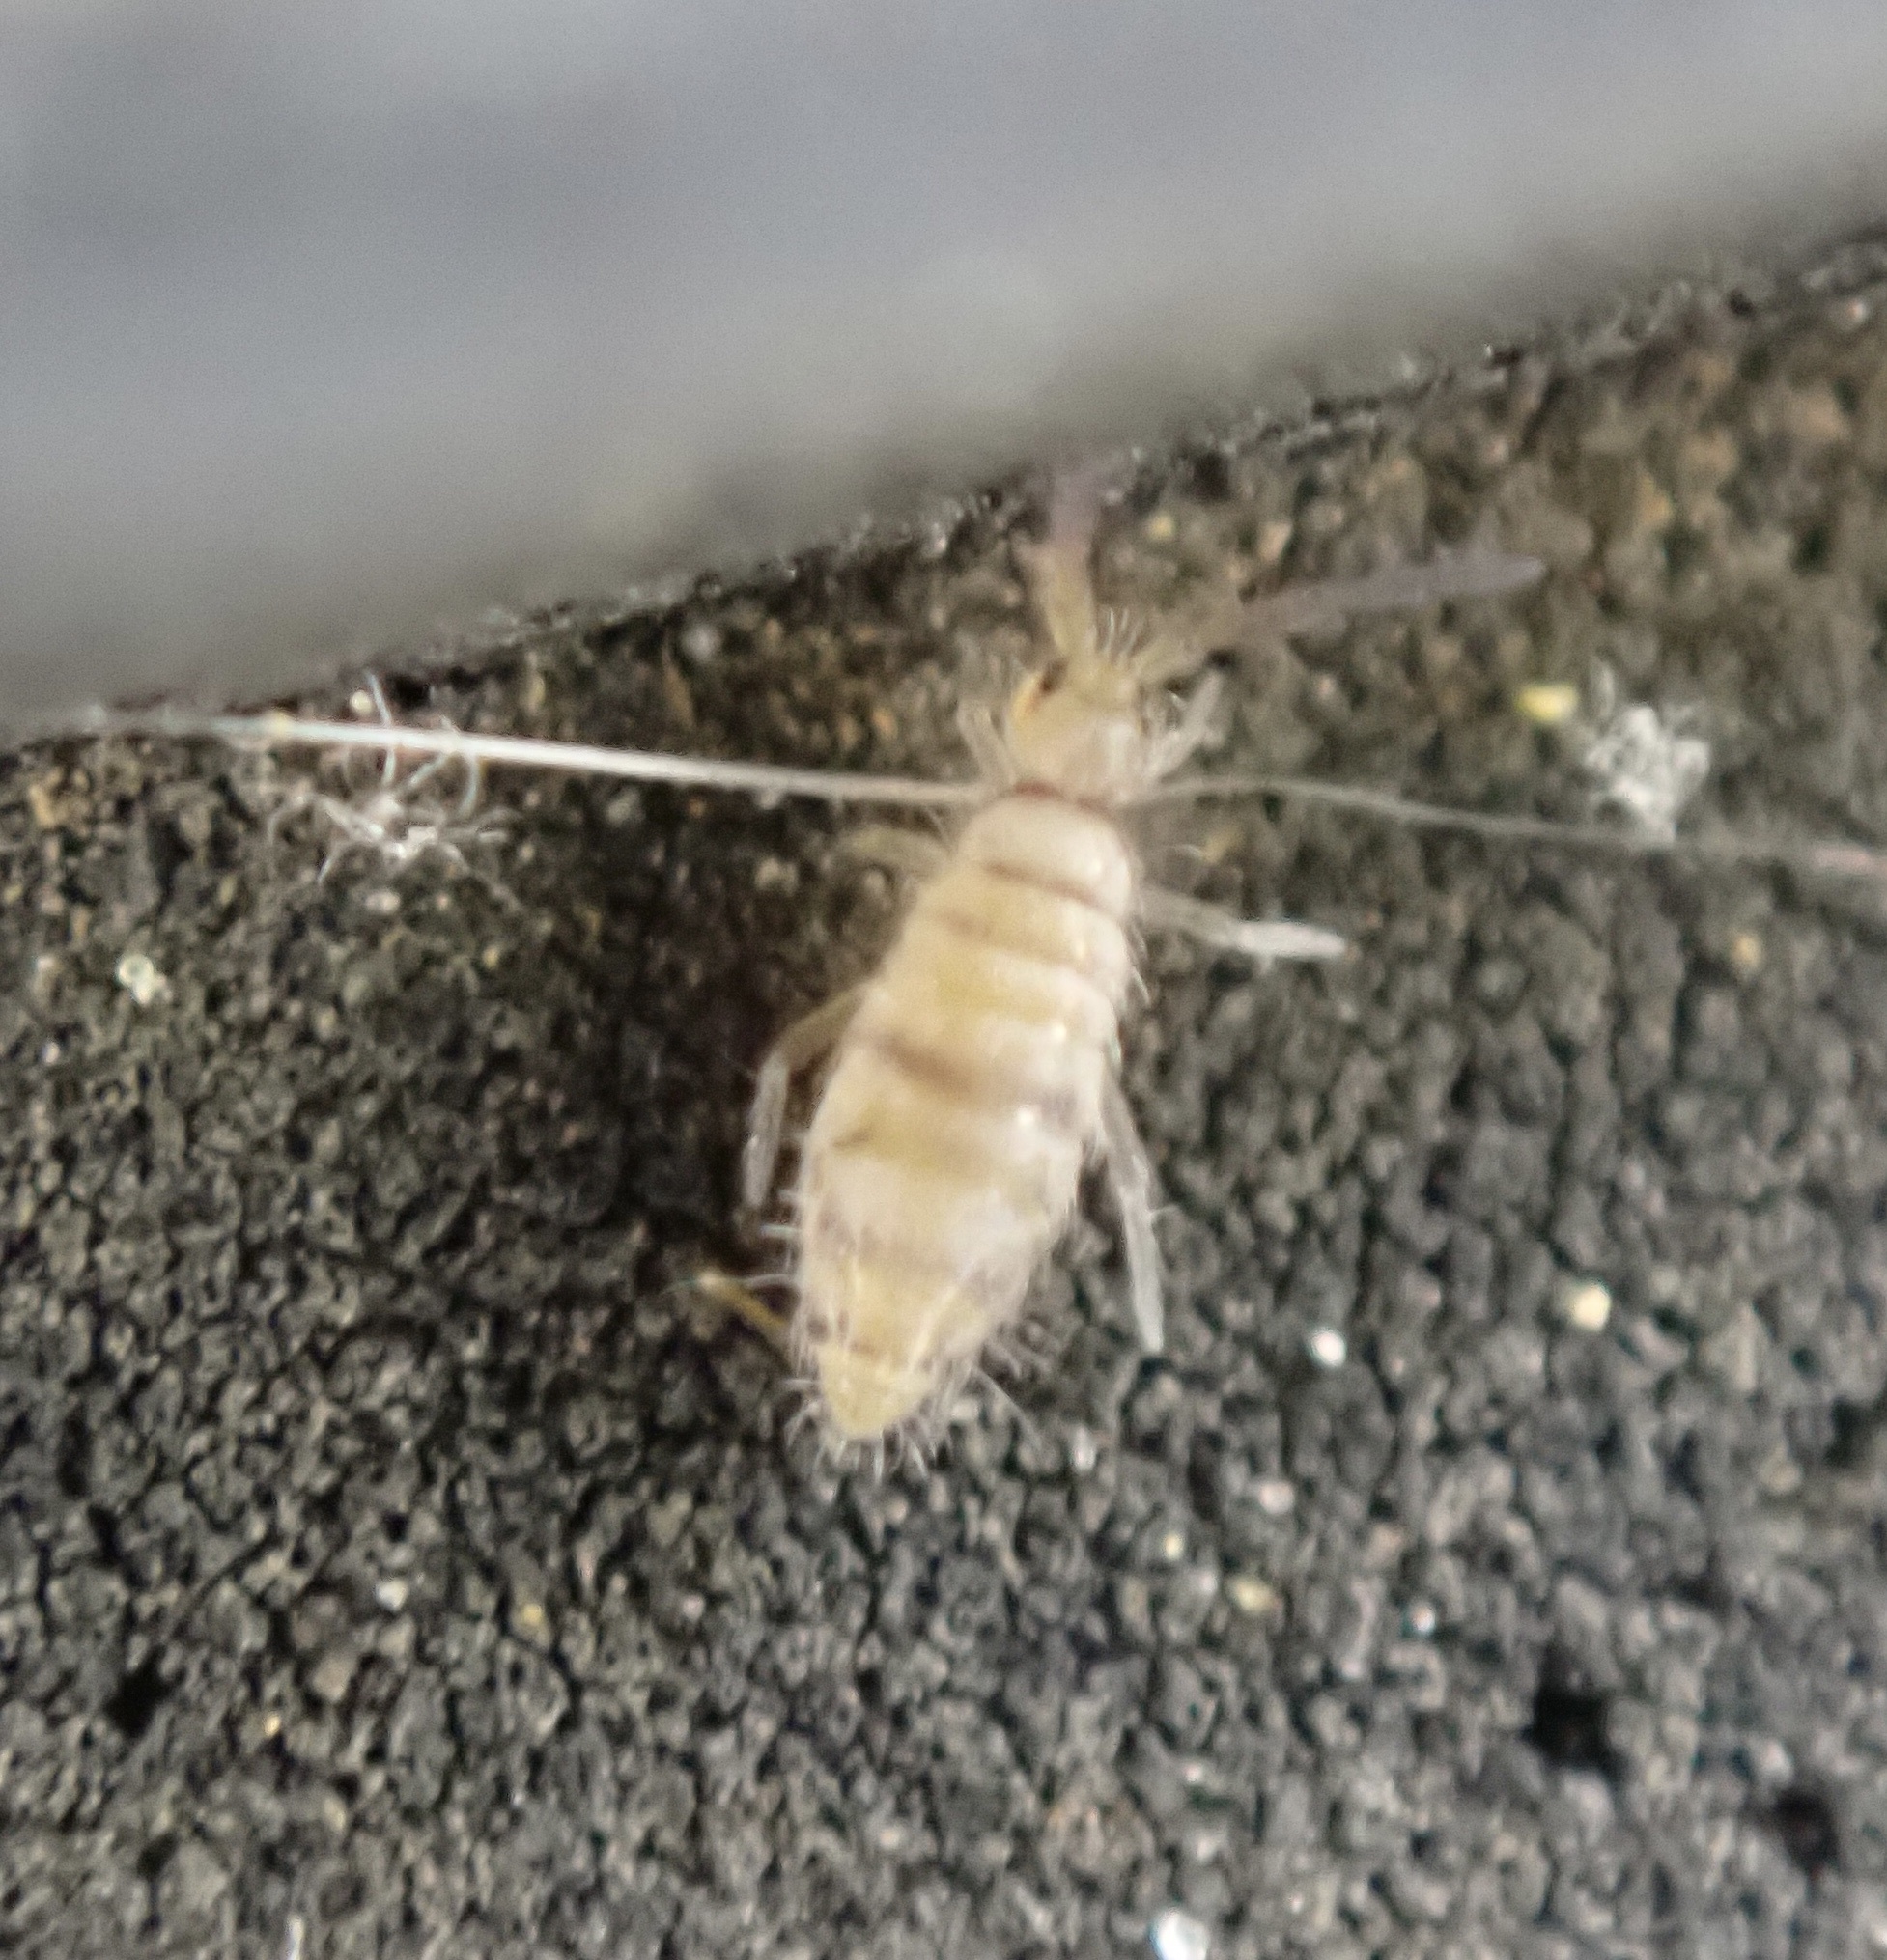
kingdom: Animalia
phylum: Arthropoda
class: Collembola
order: Entomobryomorpha
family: Entomobryidae
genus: Entomobrya
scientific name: Entomobrya atrocincta
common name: Springtail
